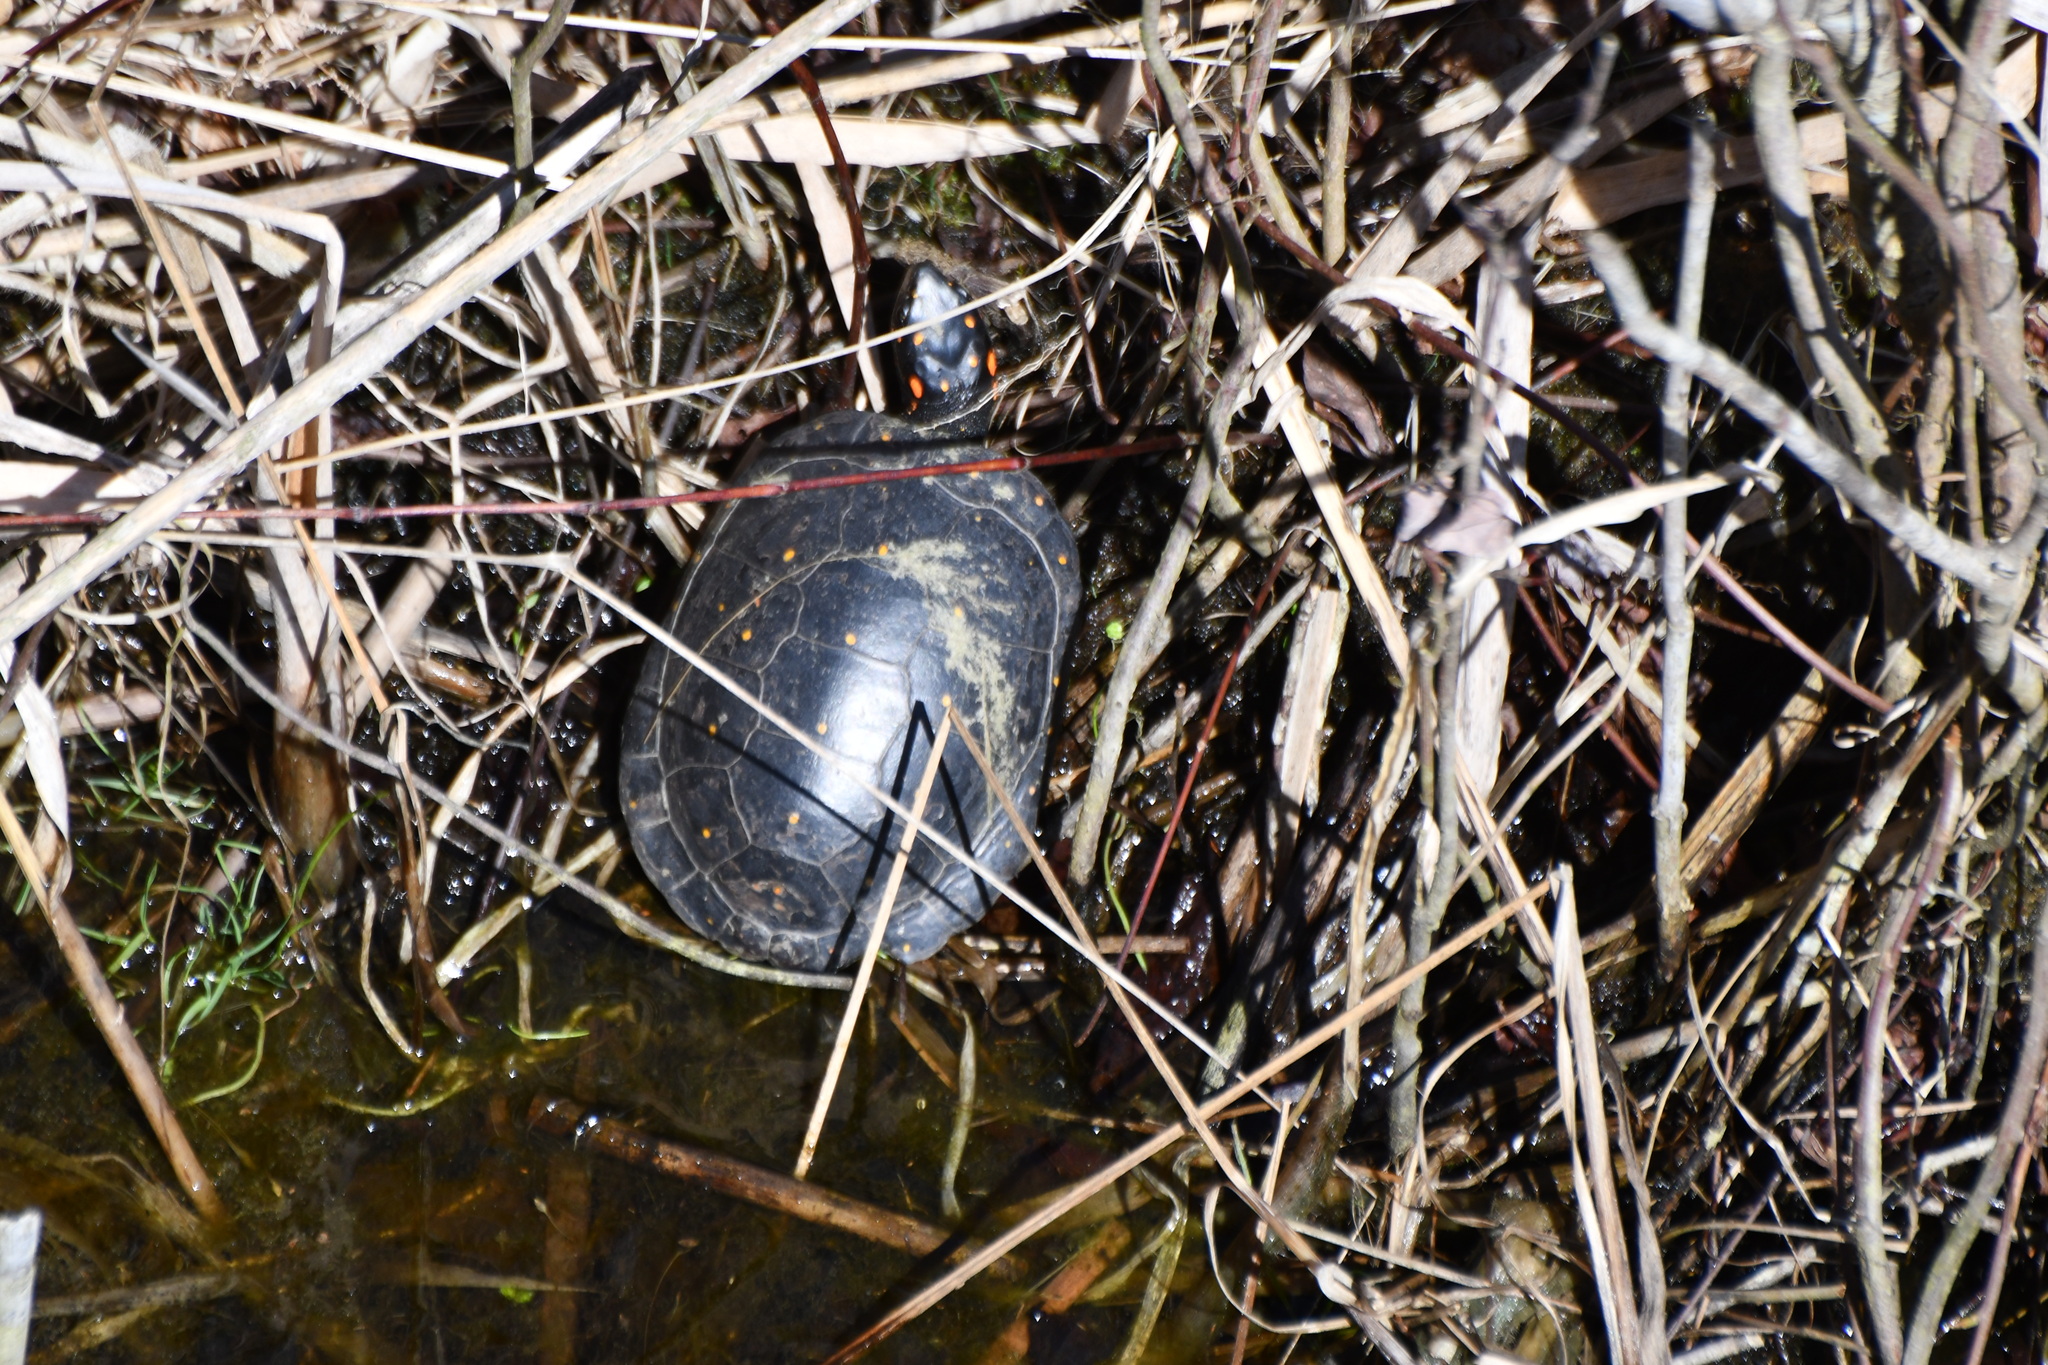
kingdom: Animalia
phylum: Chordata
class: Testudines
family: Emydidae
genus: Clemmys
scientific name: Clemmys guttata
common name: Spotted turtle
